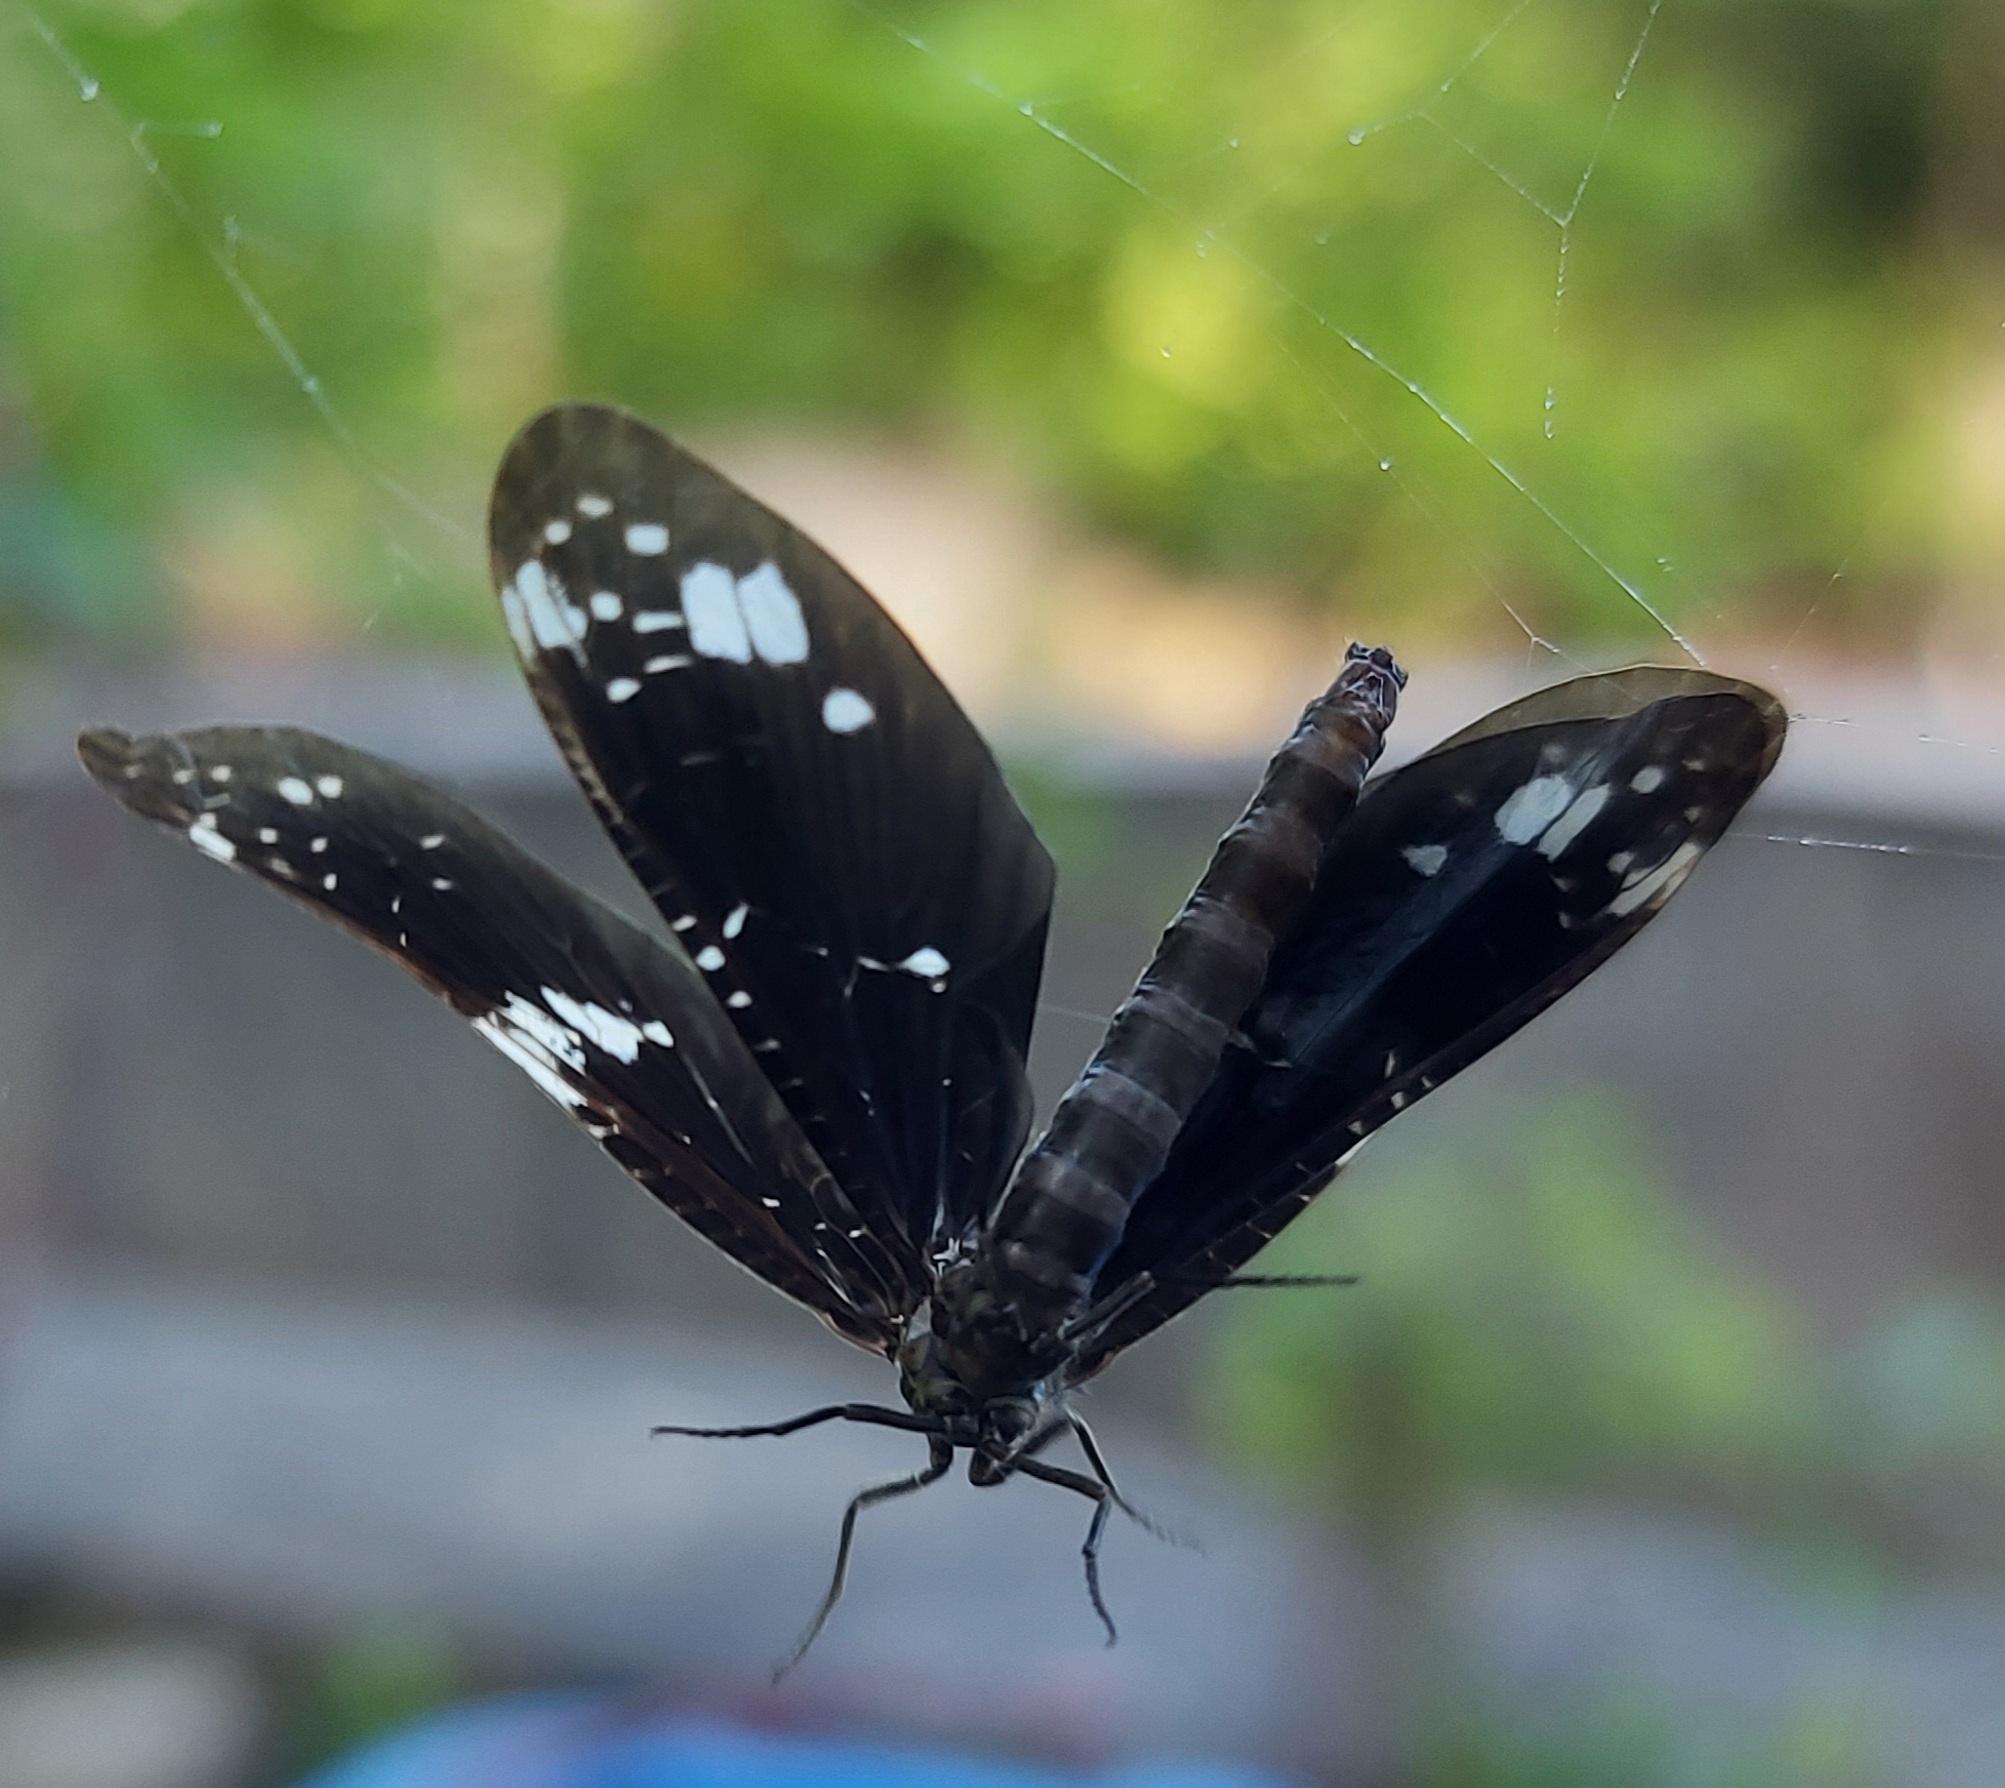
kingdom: Animalia
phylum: Arthropoda
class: Insecta
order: Megaloptera
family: Corydalidae
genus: Nigronia
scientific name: Nigronia serricornis
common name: Serrate dark fishfly
